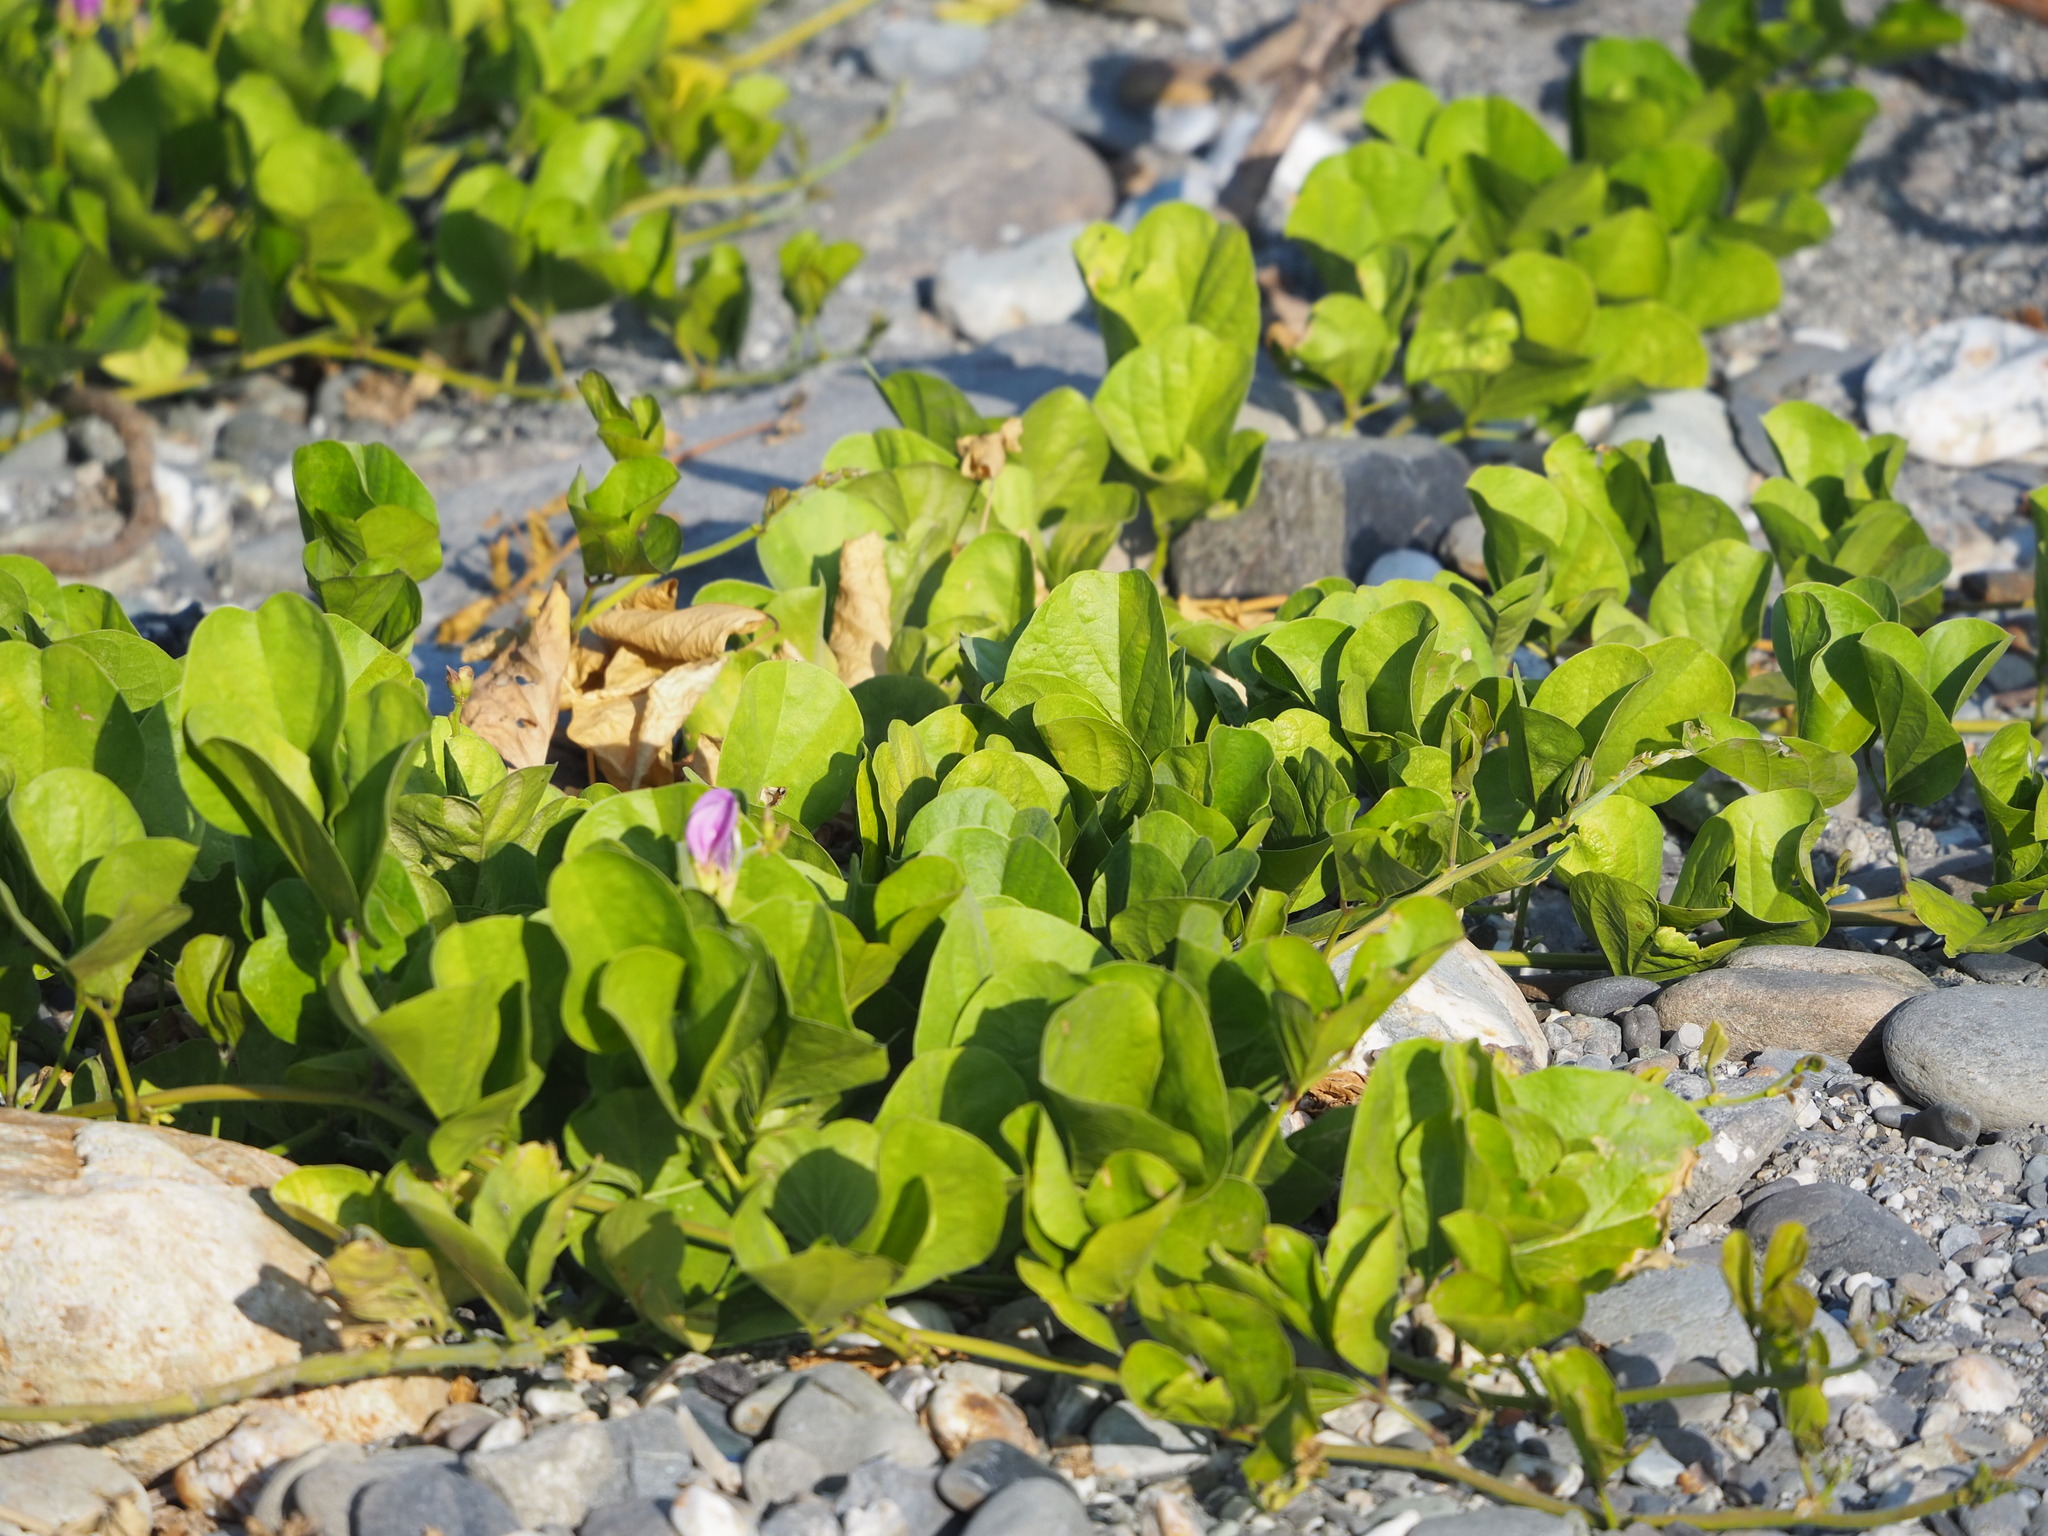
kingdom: Plantae
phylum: Tracheophyta
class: Magnoliopsida
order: Fabales
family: Fabaceae
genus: Canavalia
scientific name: Canavalia rosea
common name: Beach-bean
